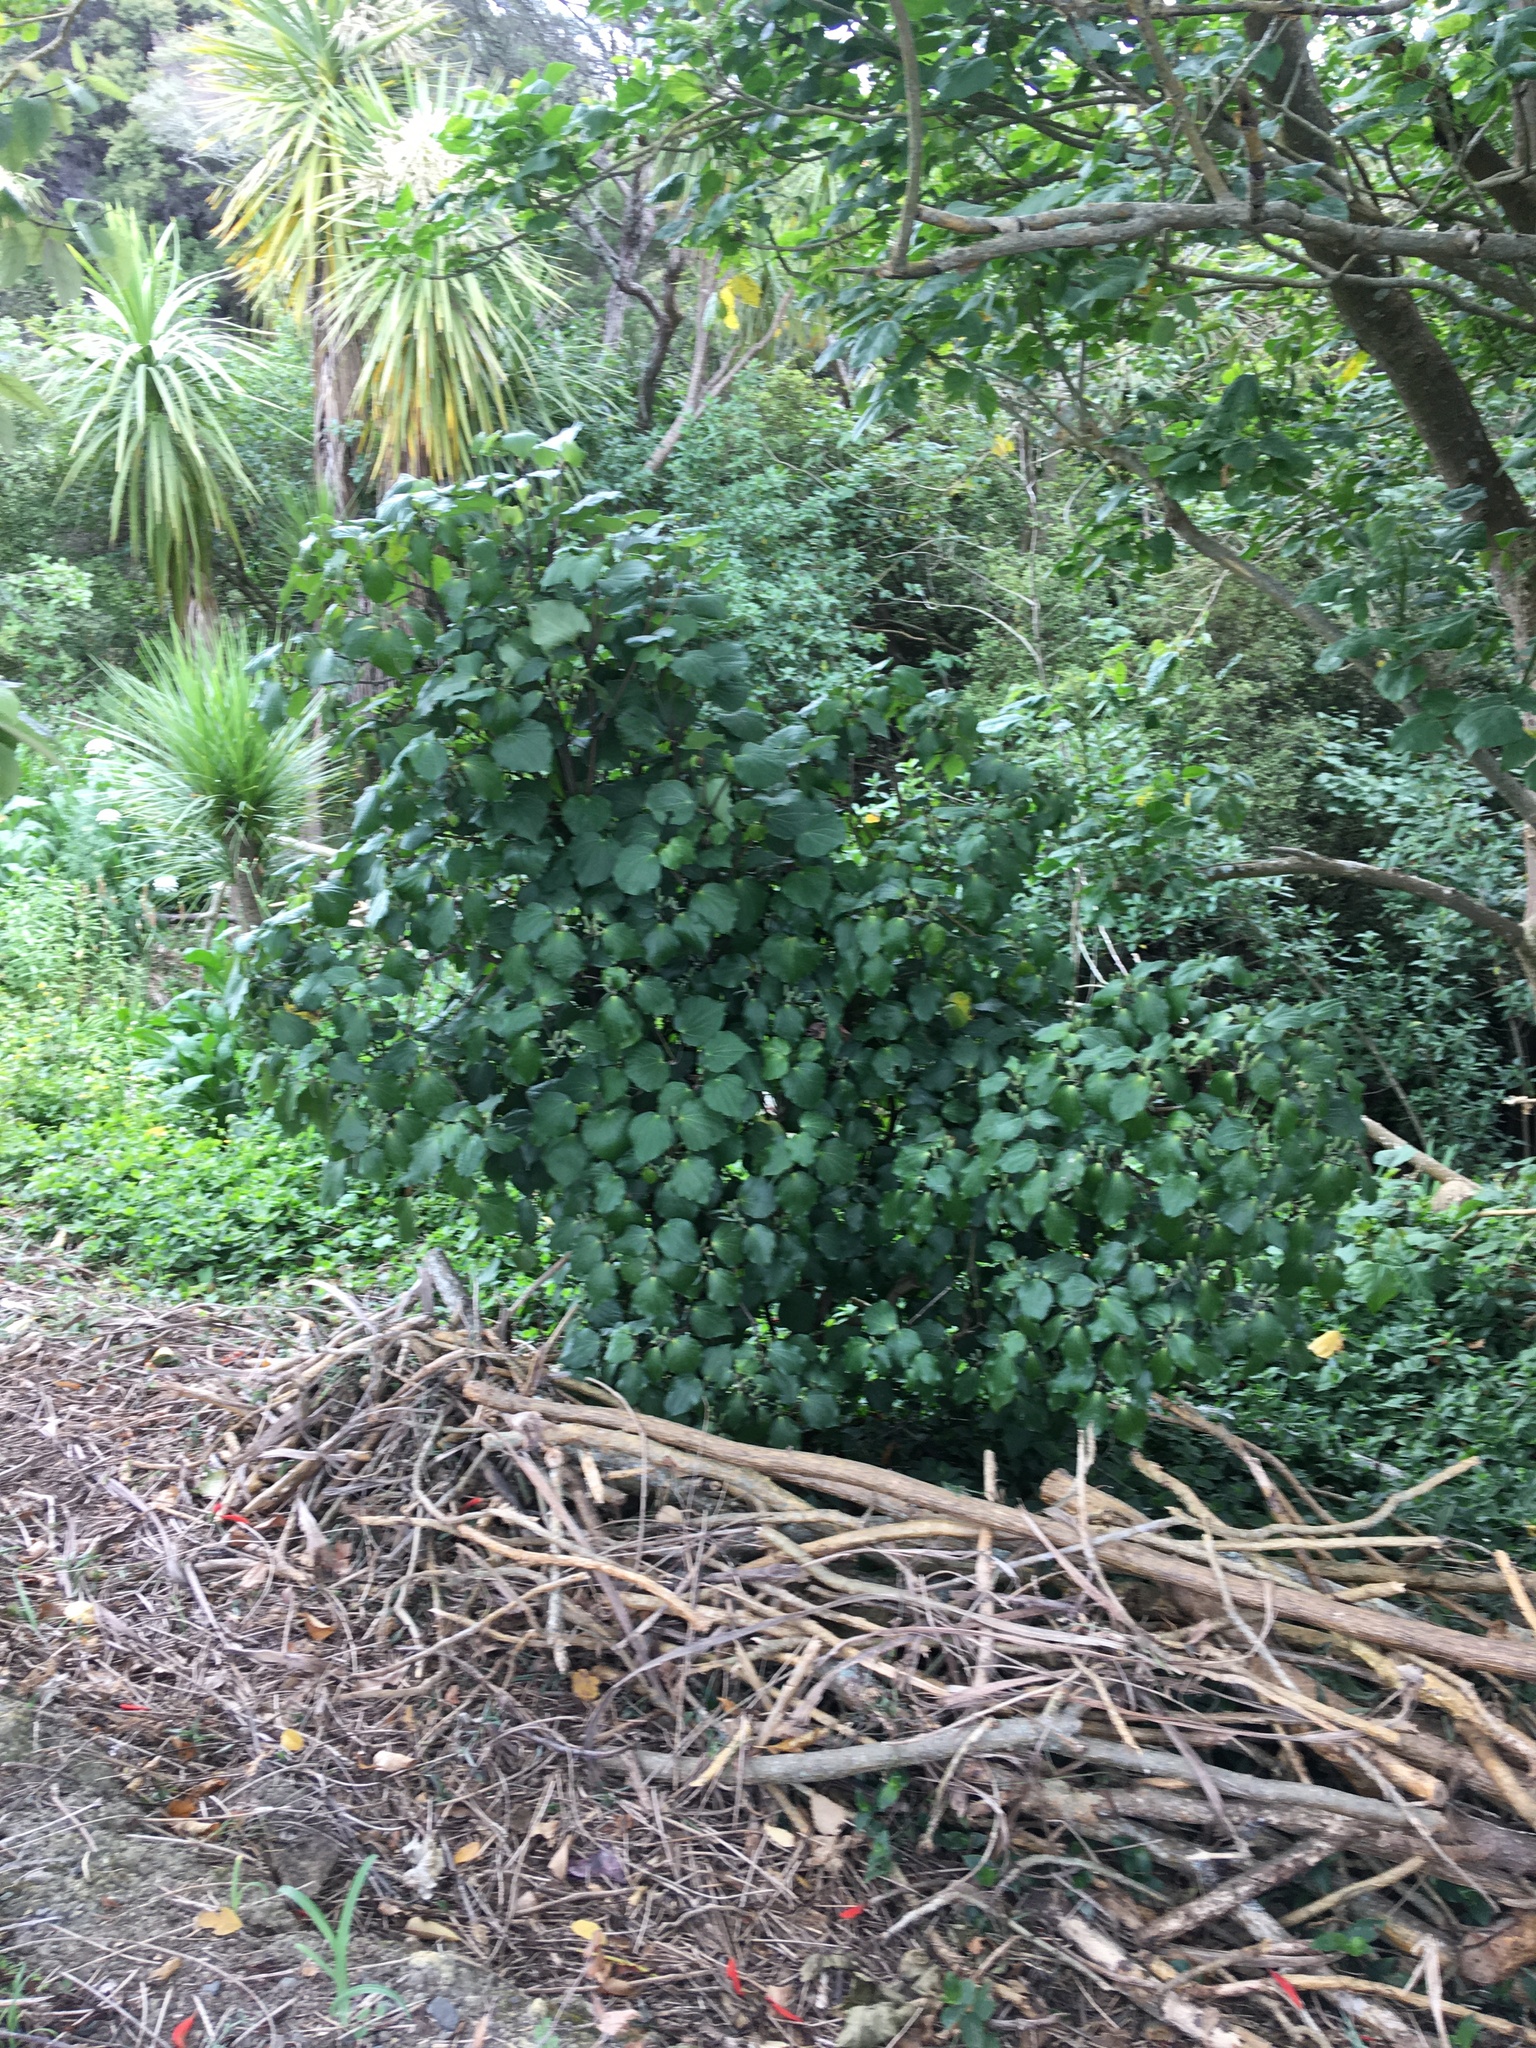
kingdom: Plantae
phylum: Tracheophyta
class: Magnoliopsida
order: Piperales
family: Piperaceae
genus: Macropiper
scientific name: Macropiper excelsum
